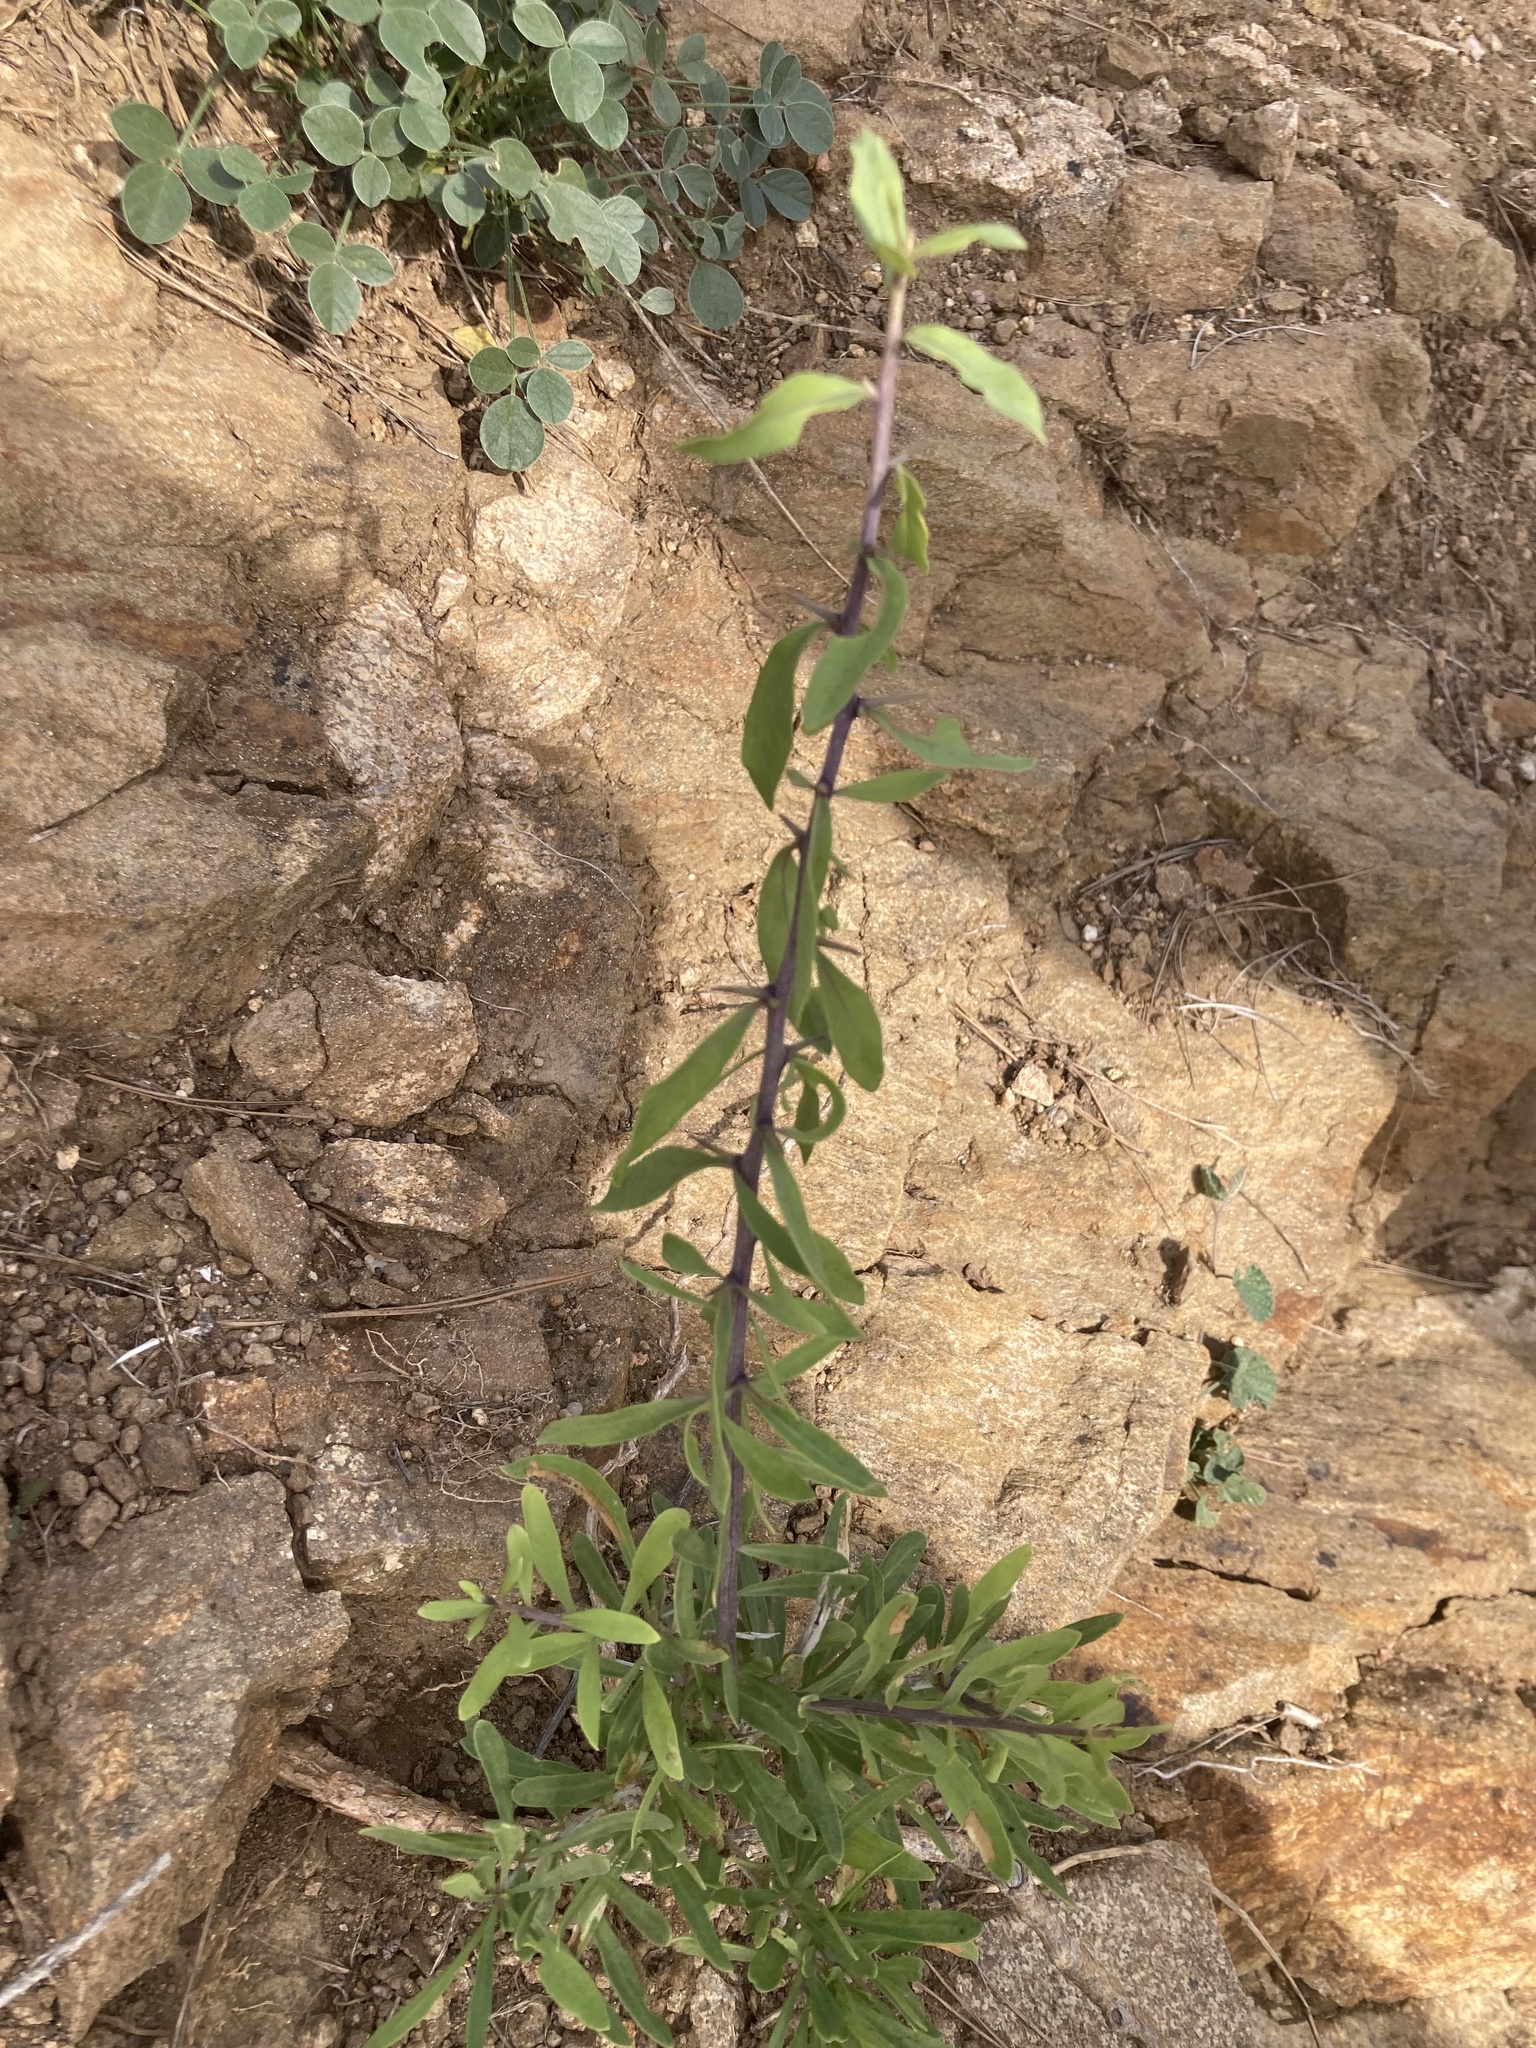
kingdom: Plantae
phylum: Tracheophyta
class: Magnoliopsida
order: Solanales
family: Solanaceae
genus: Lycium
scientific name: Lycium europaeum
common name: Boxthorn
